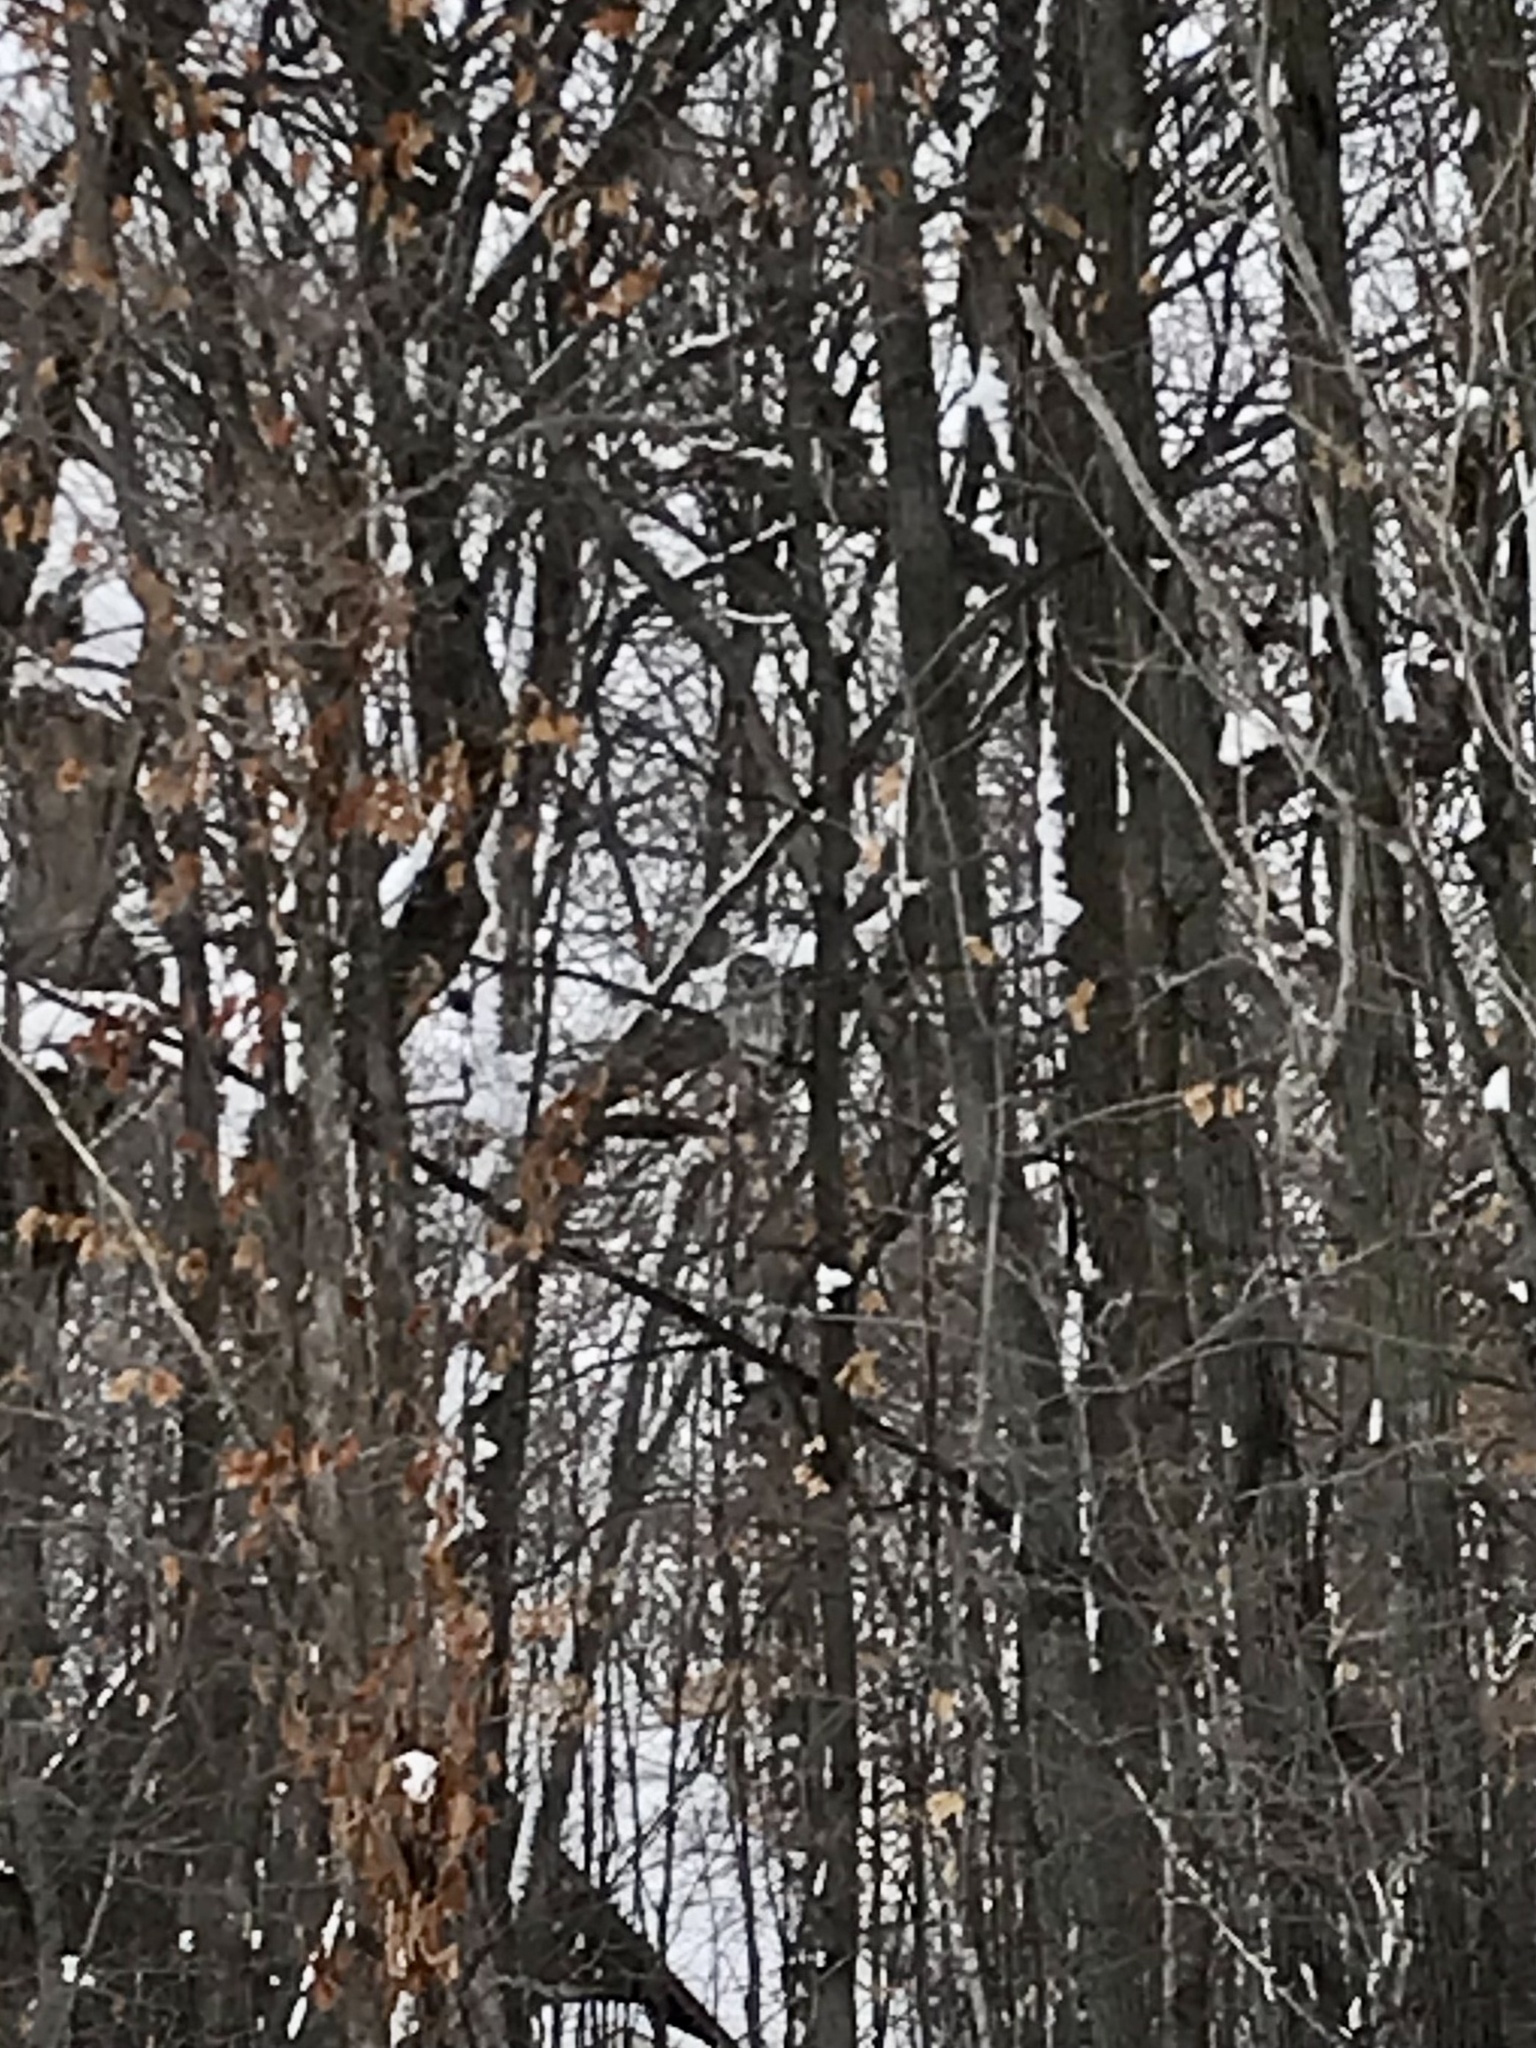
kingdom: Animalia
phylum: Chordata
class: Aves
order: Strigiformes
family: Strigidae
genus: Strix
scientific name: Strix varia
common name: Barred owl
